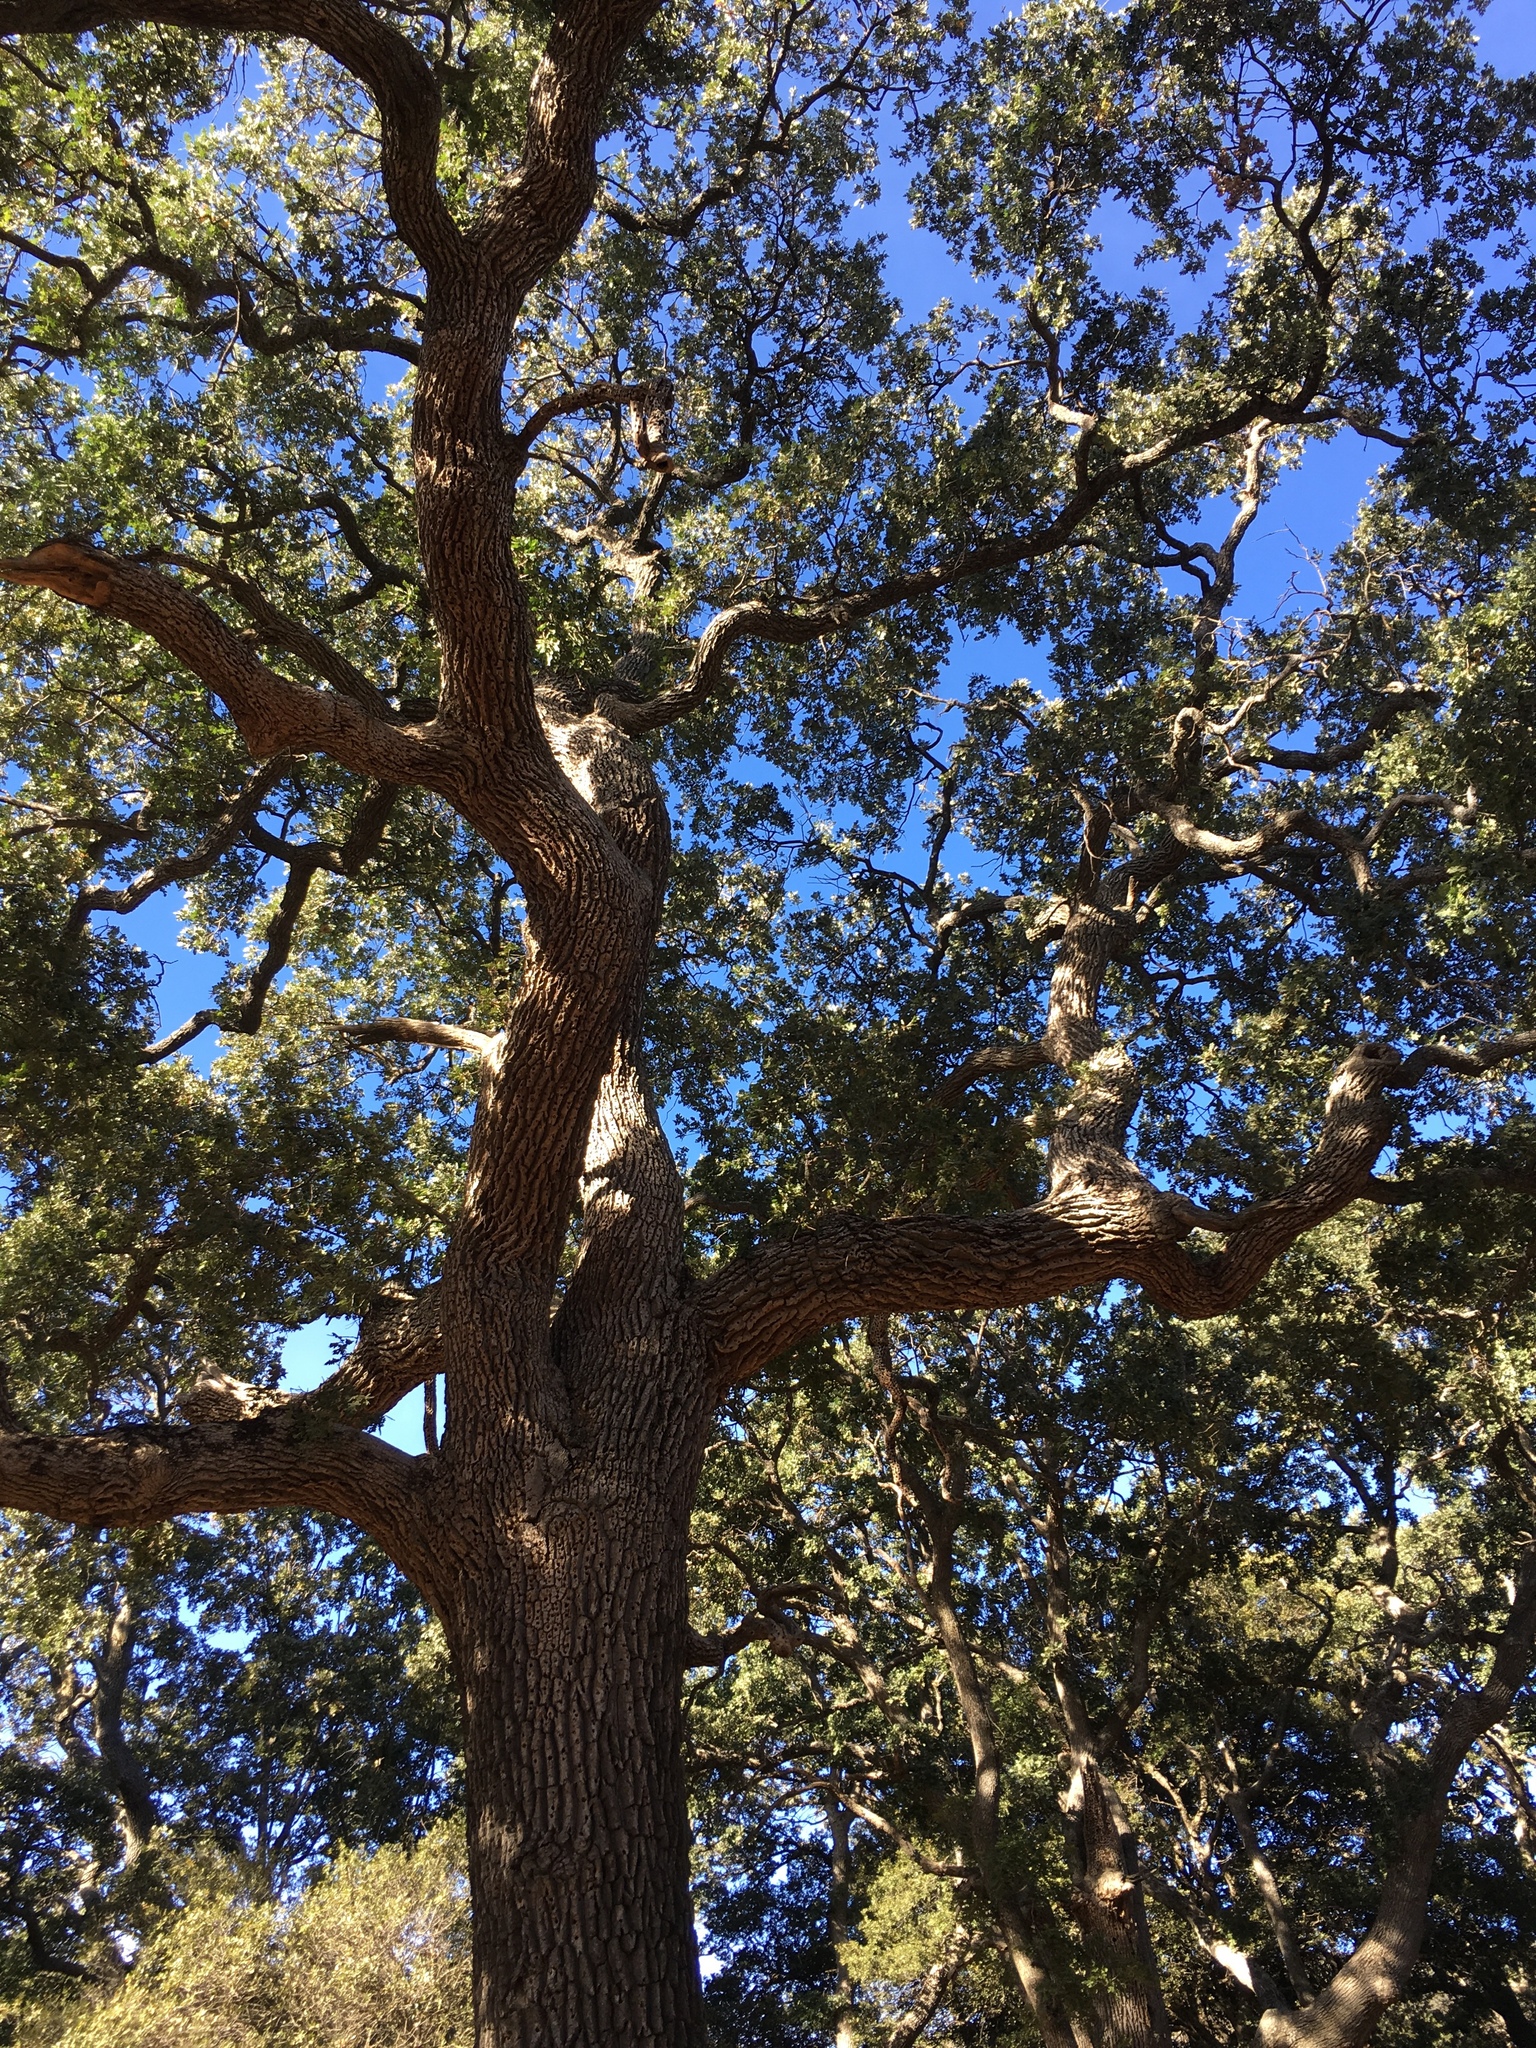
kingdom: Plantae
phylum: Tracheophyta
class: Magnoliopsida
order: Fagales
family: Fagaceae
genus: Quercus
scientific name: Quercus lobata
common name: Valley oak
